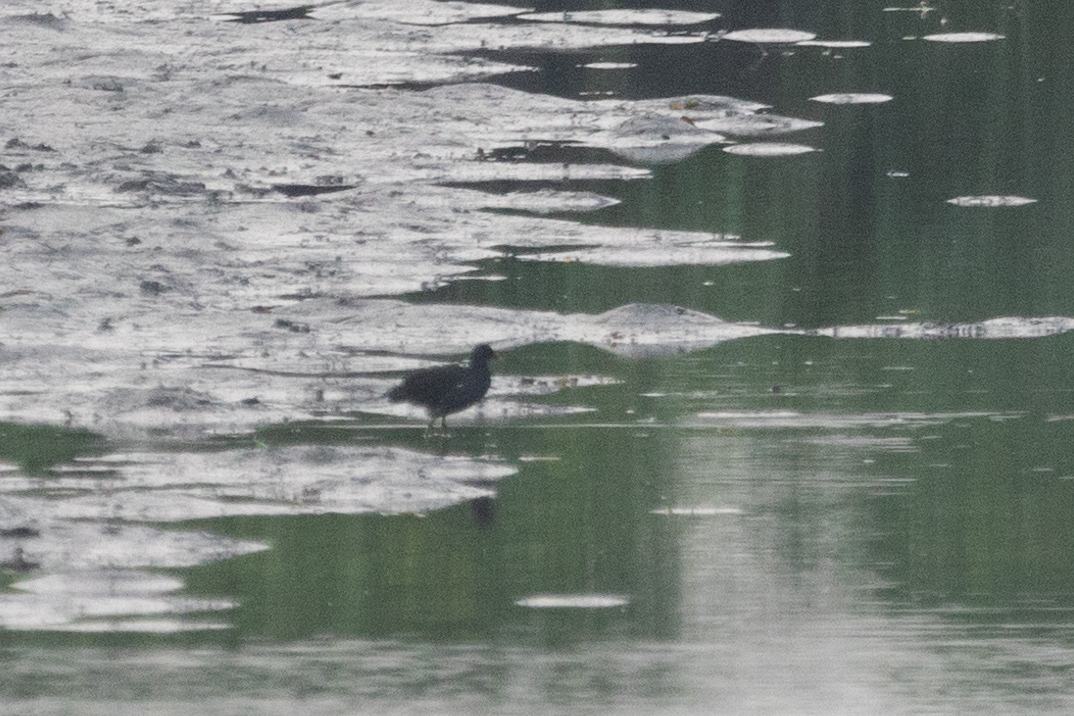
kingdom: Animalia
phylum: Chordata
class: Aves
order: Gruiformes
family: Rallidae
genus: Gallinula
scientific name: Gallinula chloropus
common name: Common moorhen
